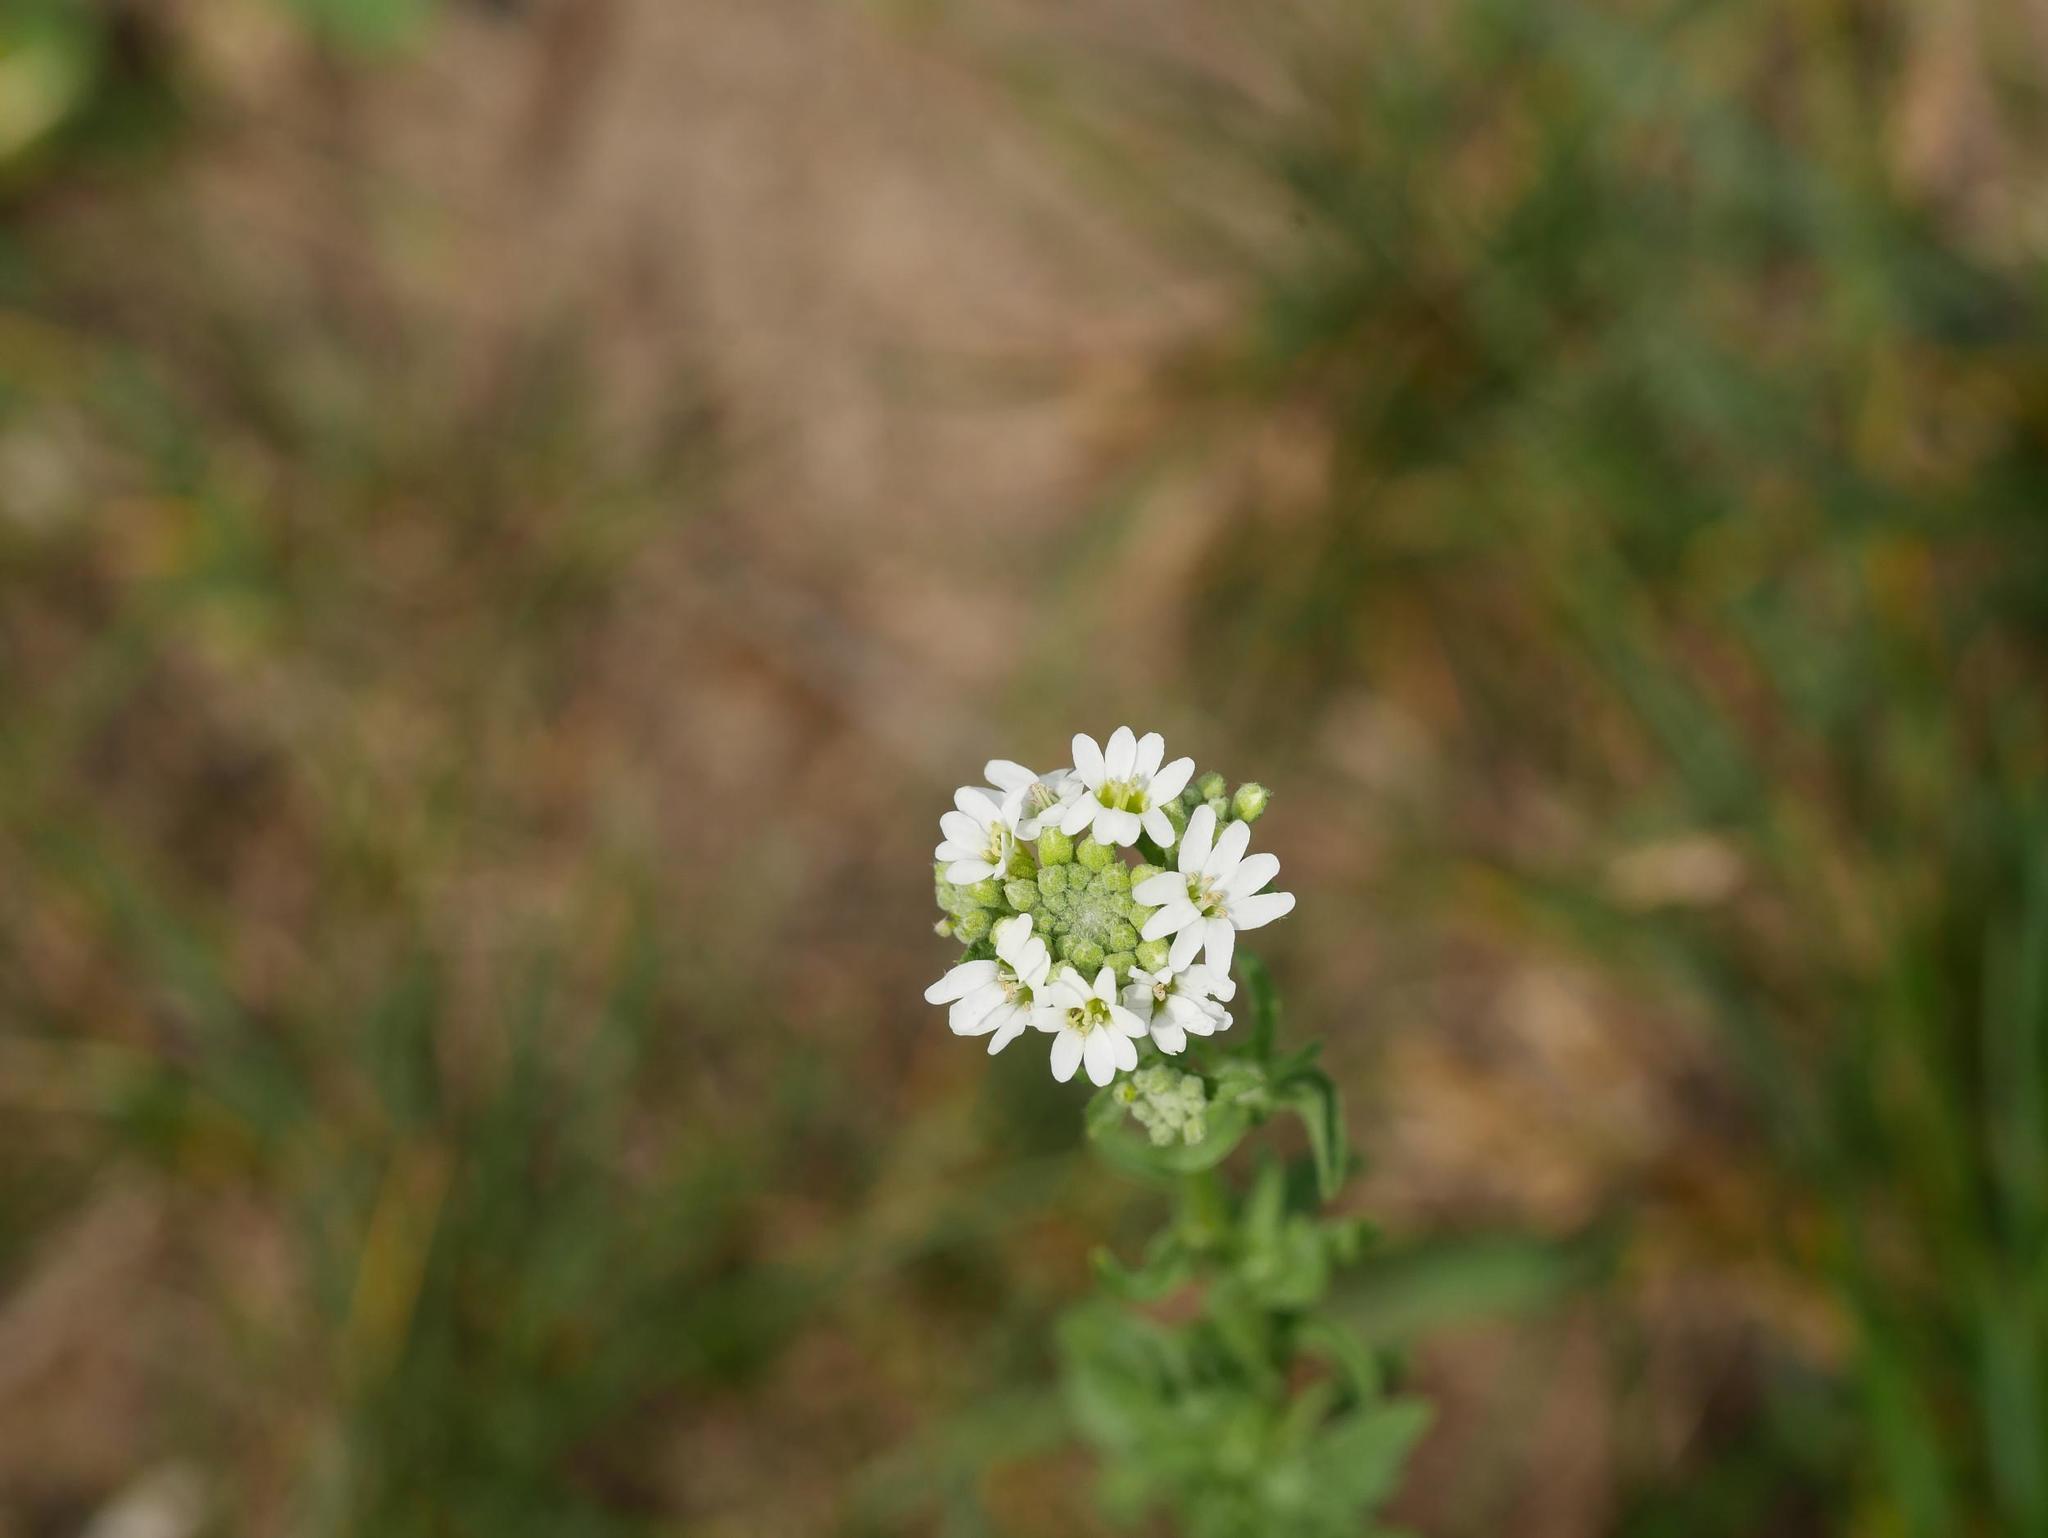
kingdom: Plantae
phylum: Tracheophyta
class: Magnoliopsida
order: Brassicales
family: Brassicaceae
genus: Berteroa
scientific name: Berteroa incana
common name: Hoary alison
